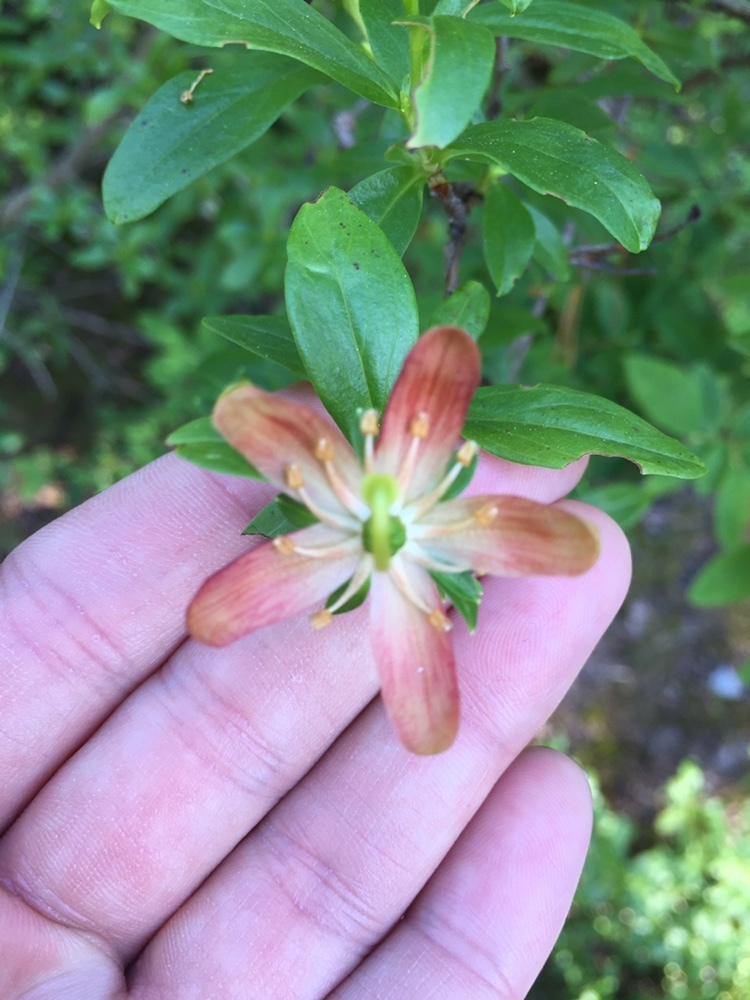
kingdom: Plantae
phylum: Tracheophyta
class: Magnoliopsida
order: Ericales
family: Ericaceae
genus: Elliottia
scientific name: Elliottia pyroliflora
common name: Copperbush
